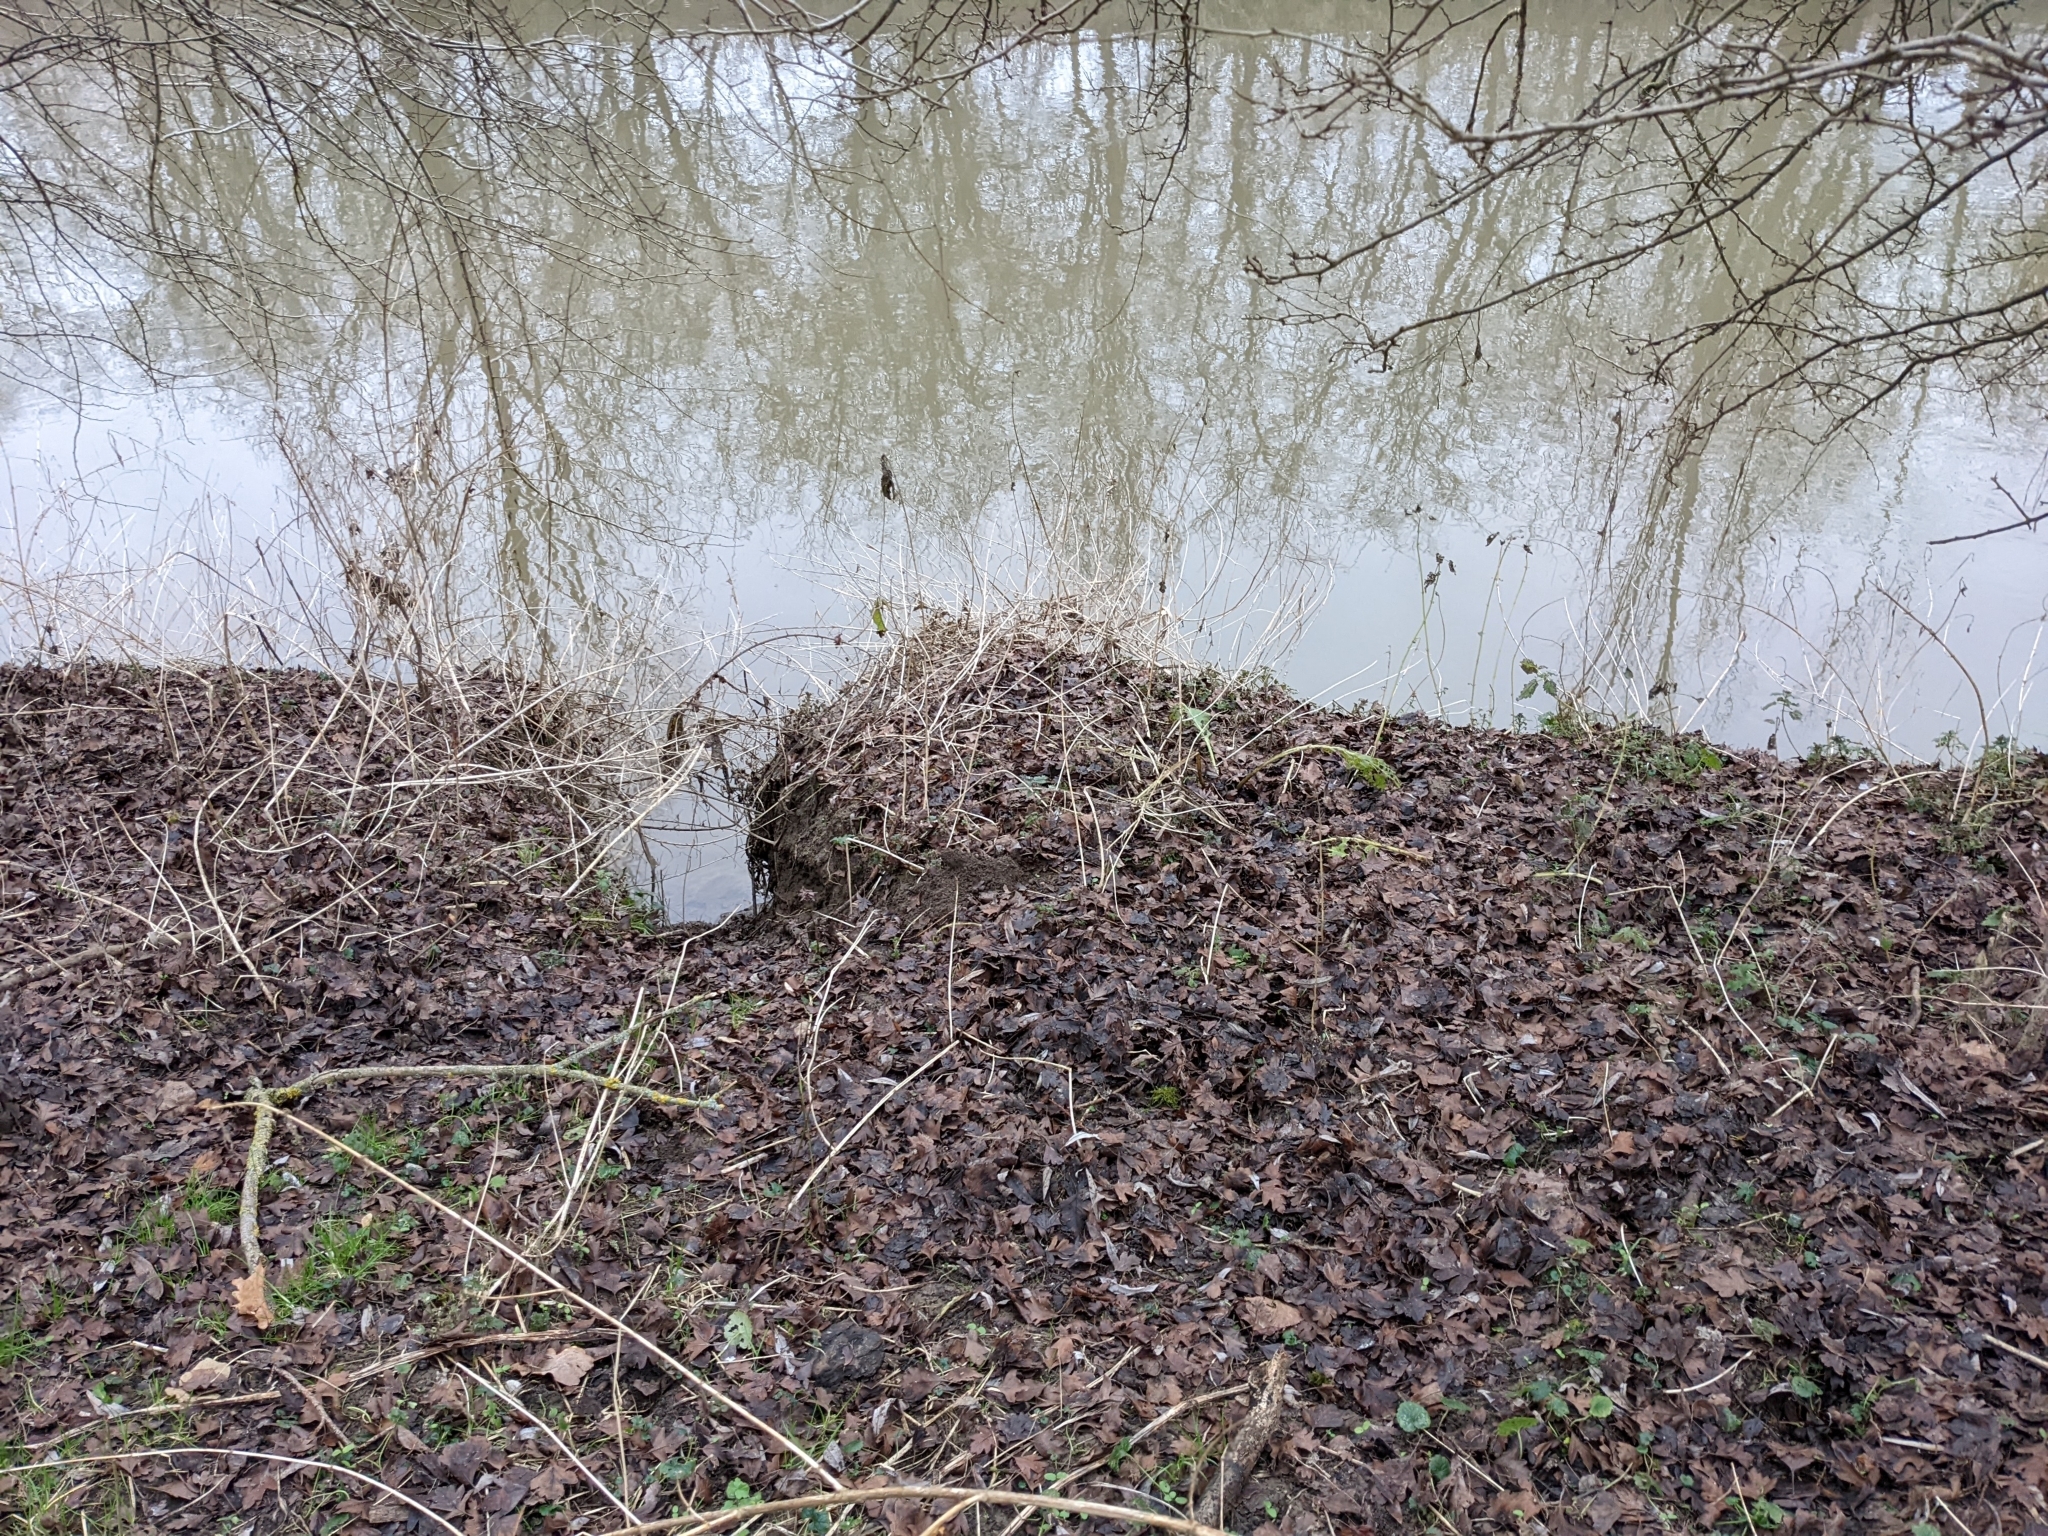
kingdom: Animalia
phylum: Chordata
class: Mammalia
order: Rodentia
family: Castoridae
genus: Castor
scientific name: Castor fiber
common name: Eurasian beaver
